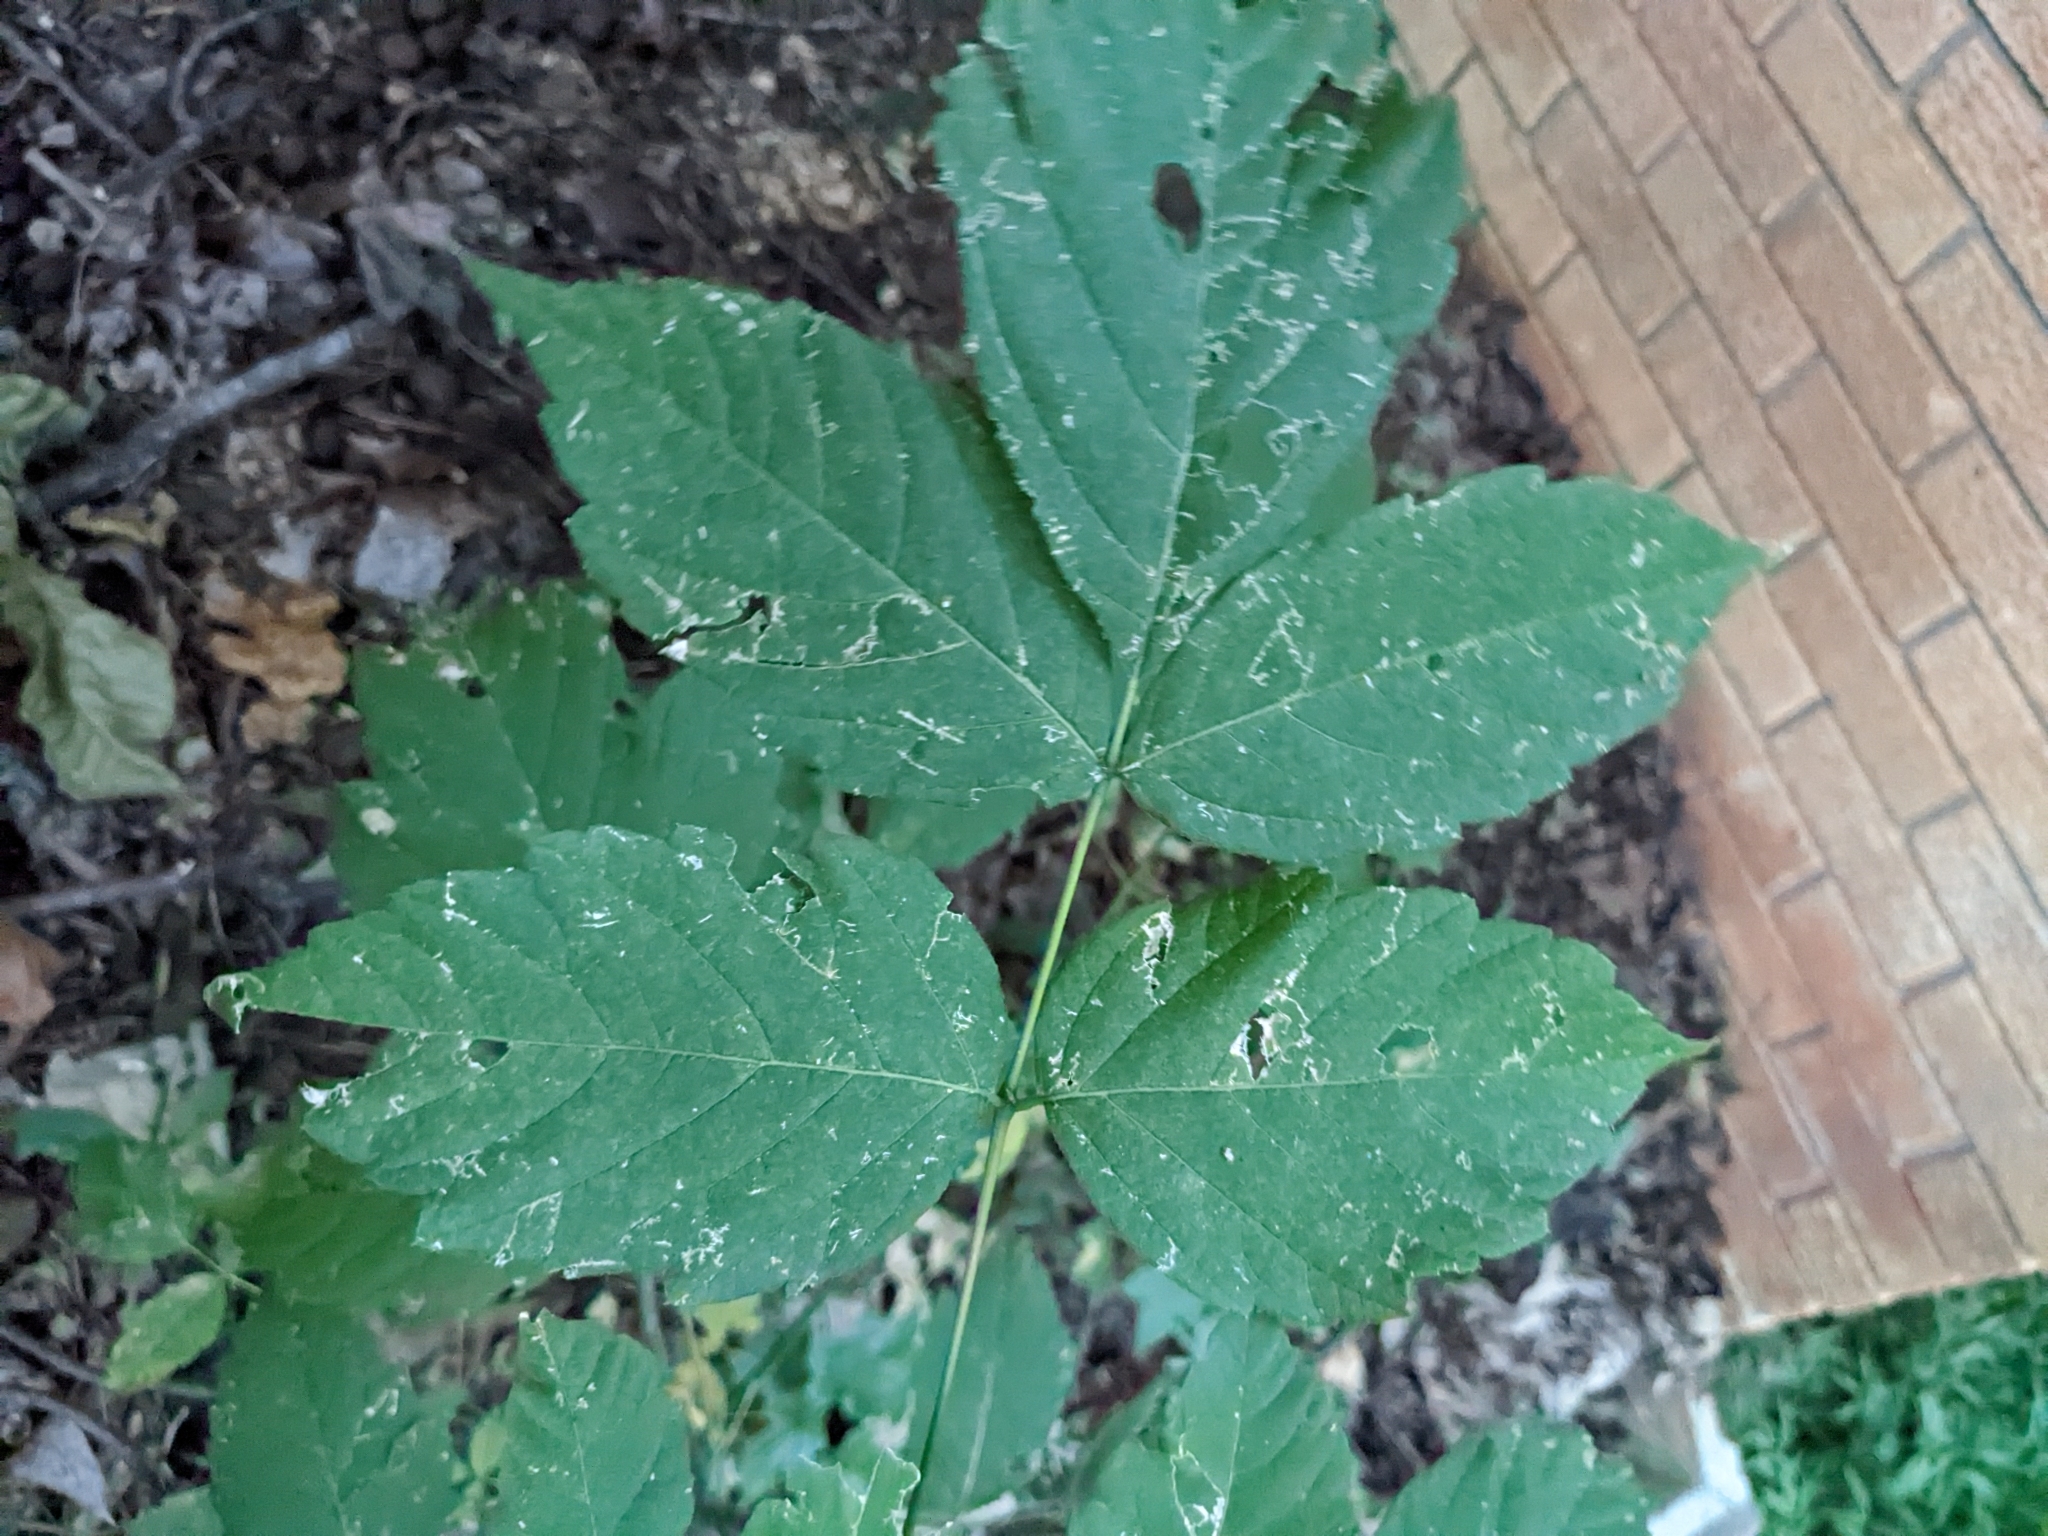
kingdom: Plantae
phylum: Tracheophyta
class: Magnoliopsida
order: Sapindales
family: Sapindaceae
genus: Acer
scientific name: Acer negundo
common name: Ashleaf maple
